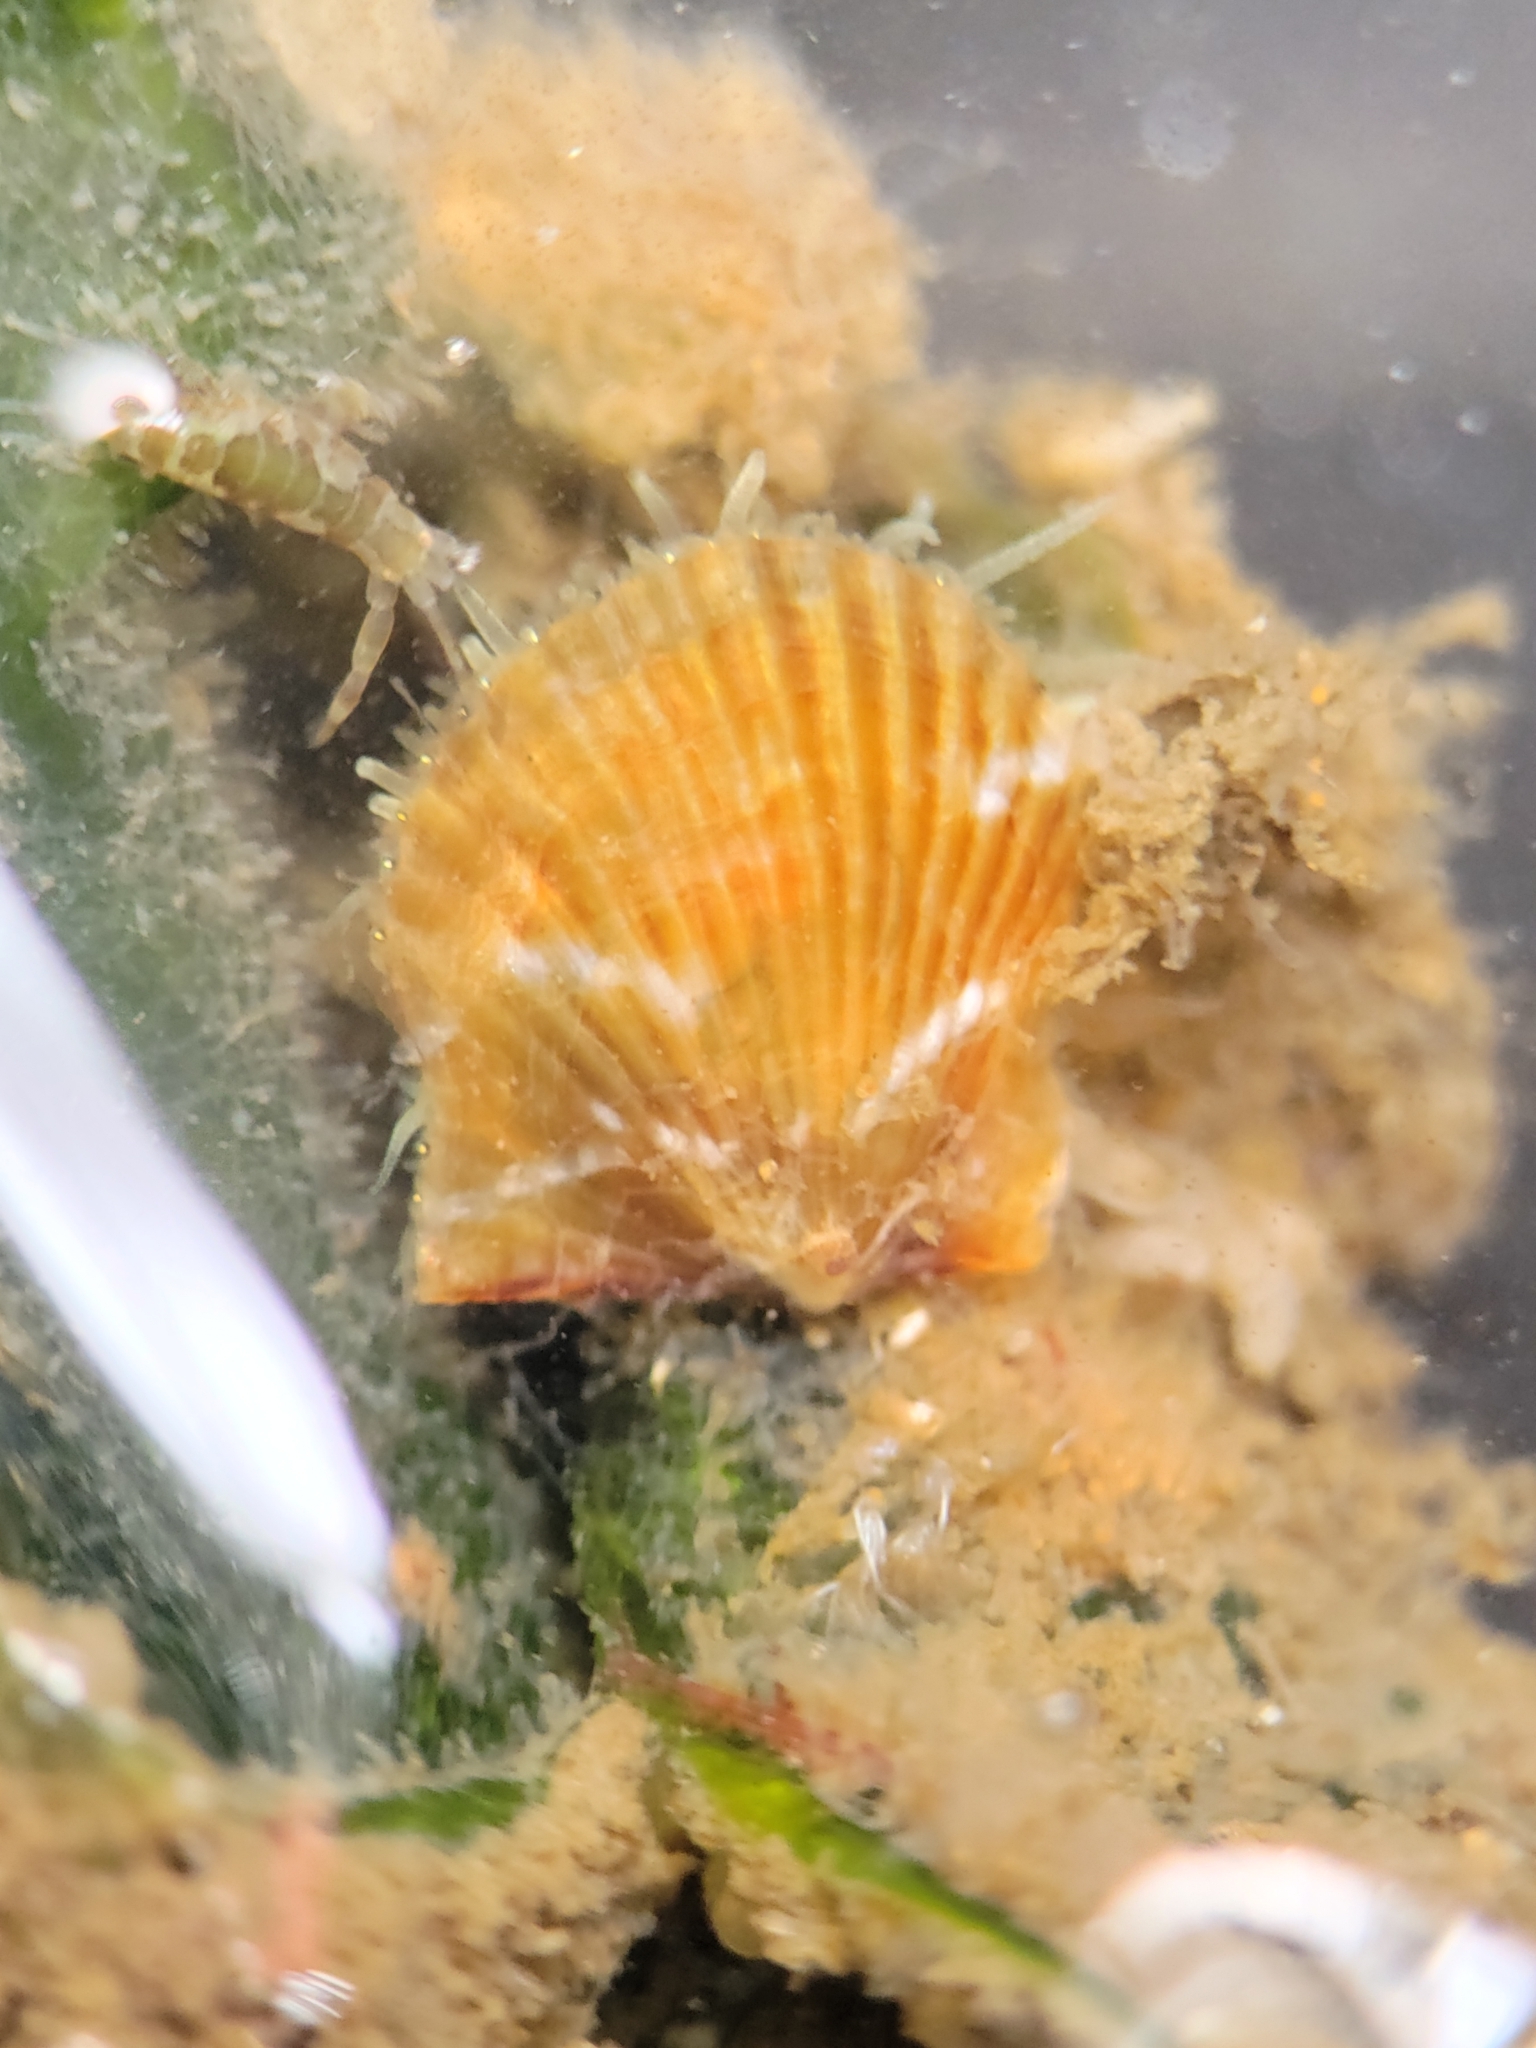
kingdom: Animalia
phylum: Mollusca
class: Bivalvia
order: Pectinida
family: Pectinidae
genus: Leptopecten
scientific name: Leptopecten latiauratus
